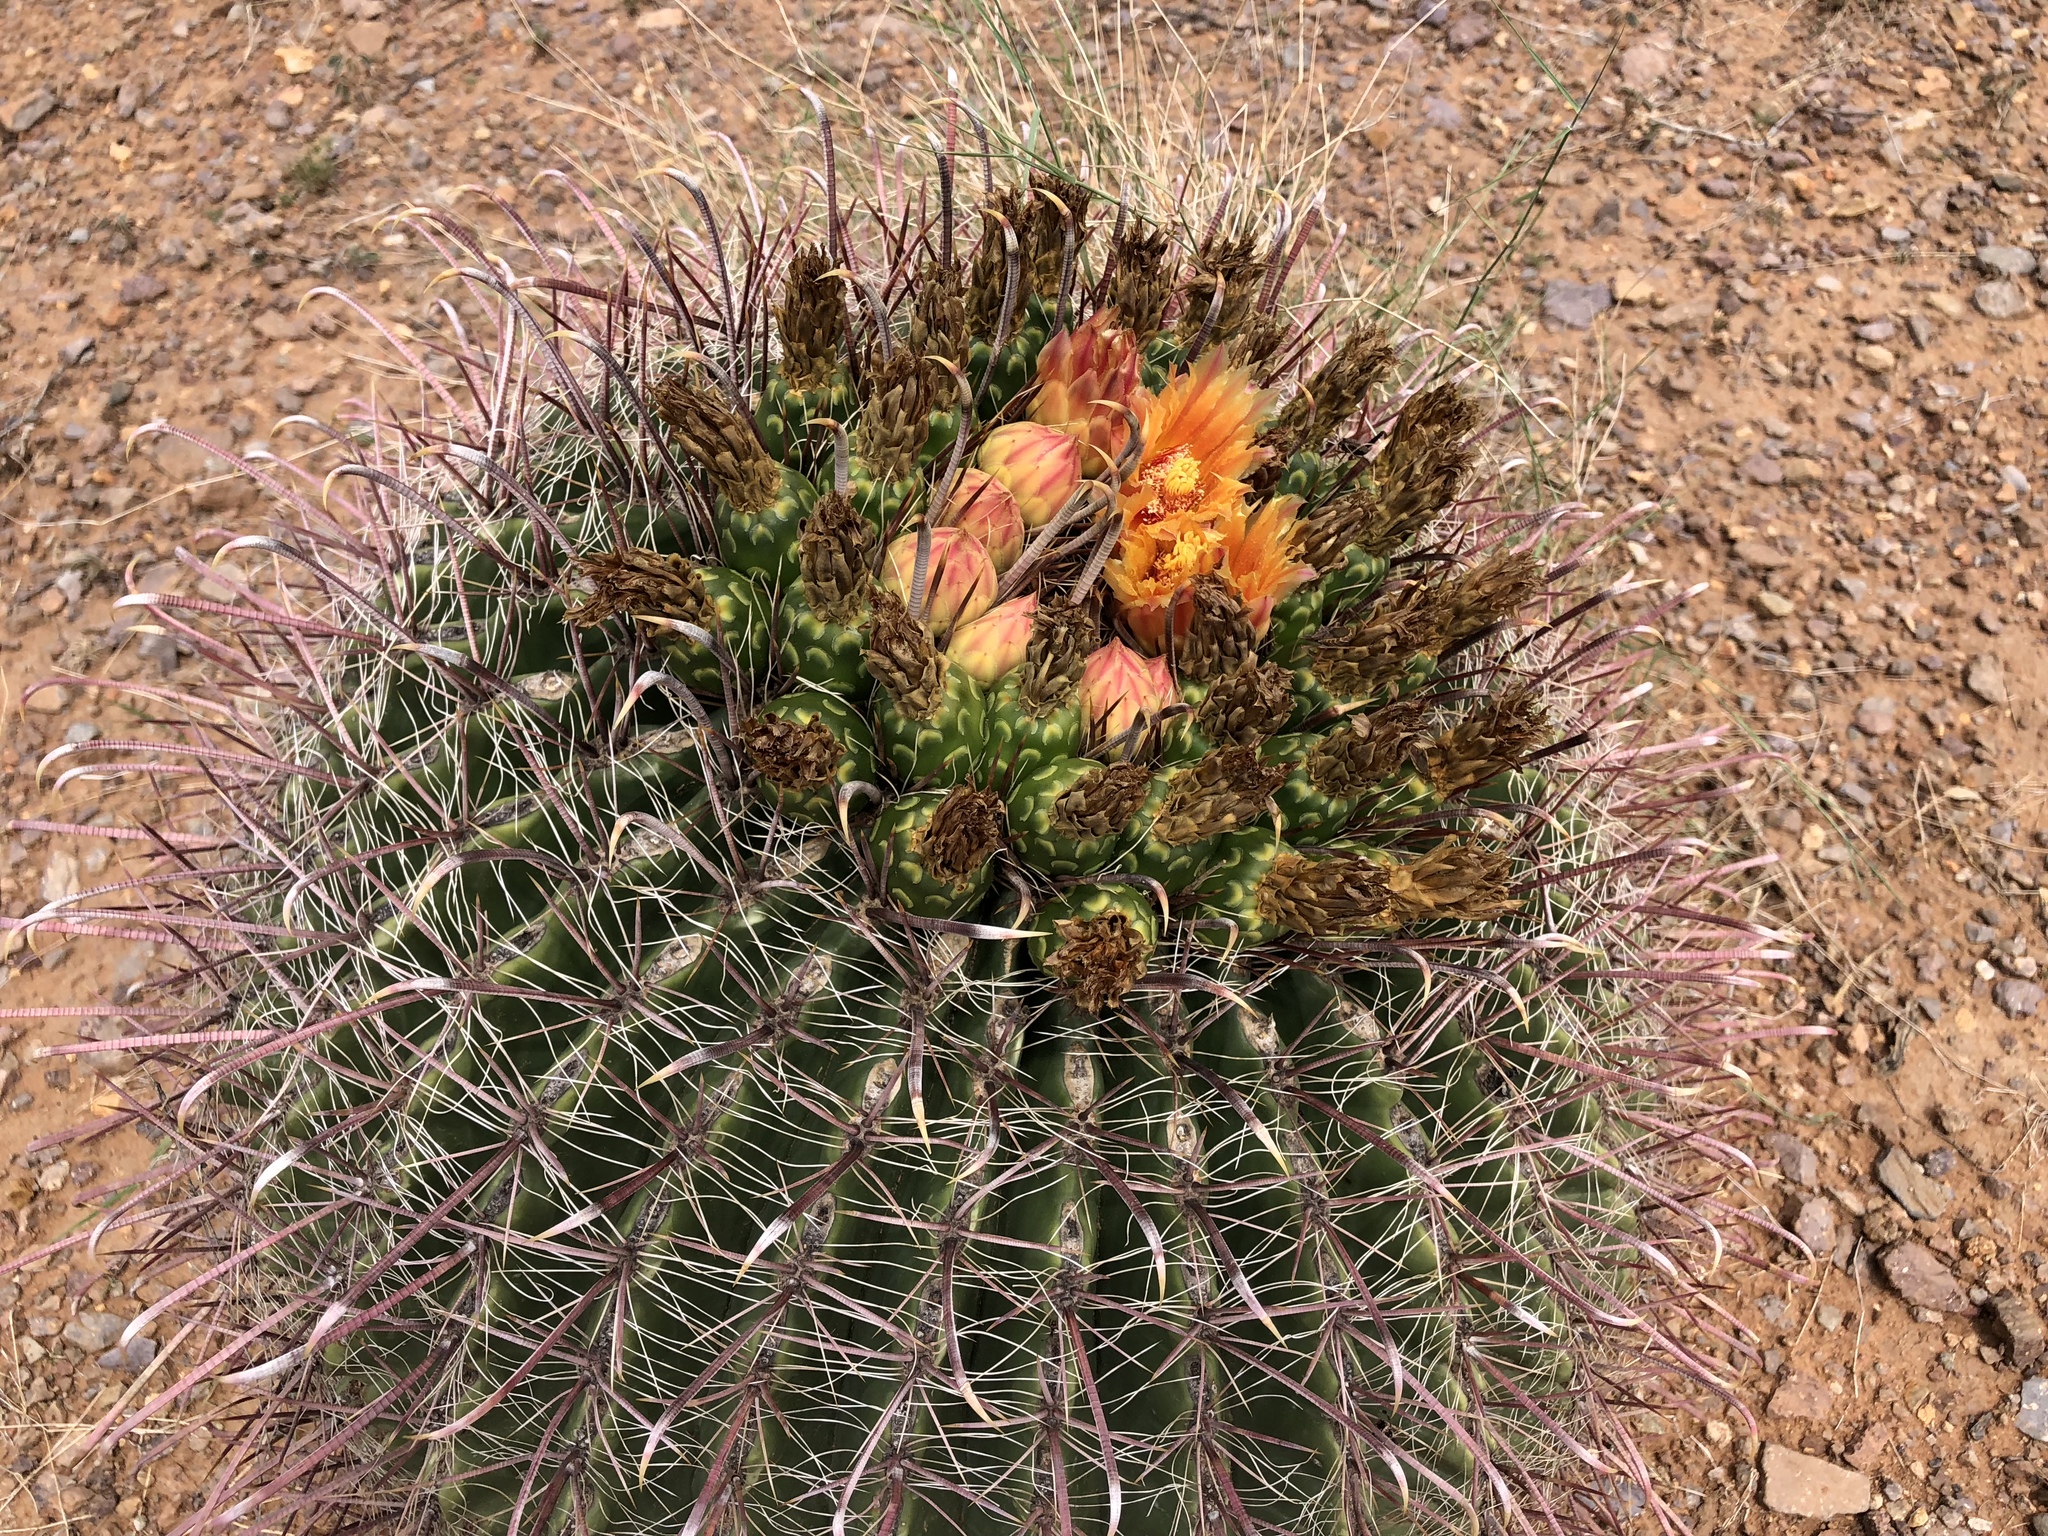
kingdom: Plantae
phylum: Tracheophyta
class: Magnoliopsida
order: Caryophyllales
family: Cactaceae
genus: Ferocactus
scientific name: Ferocactus wislizeni
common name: Candy barrel cactus
